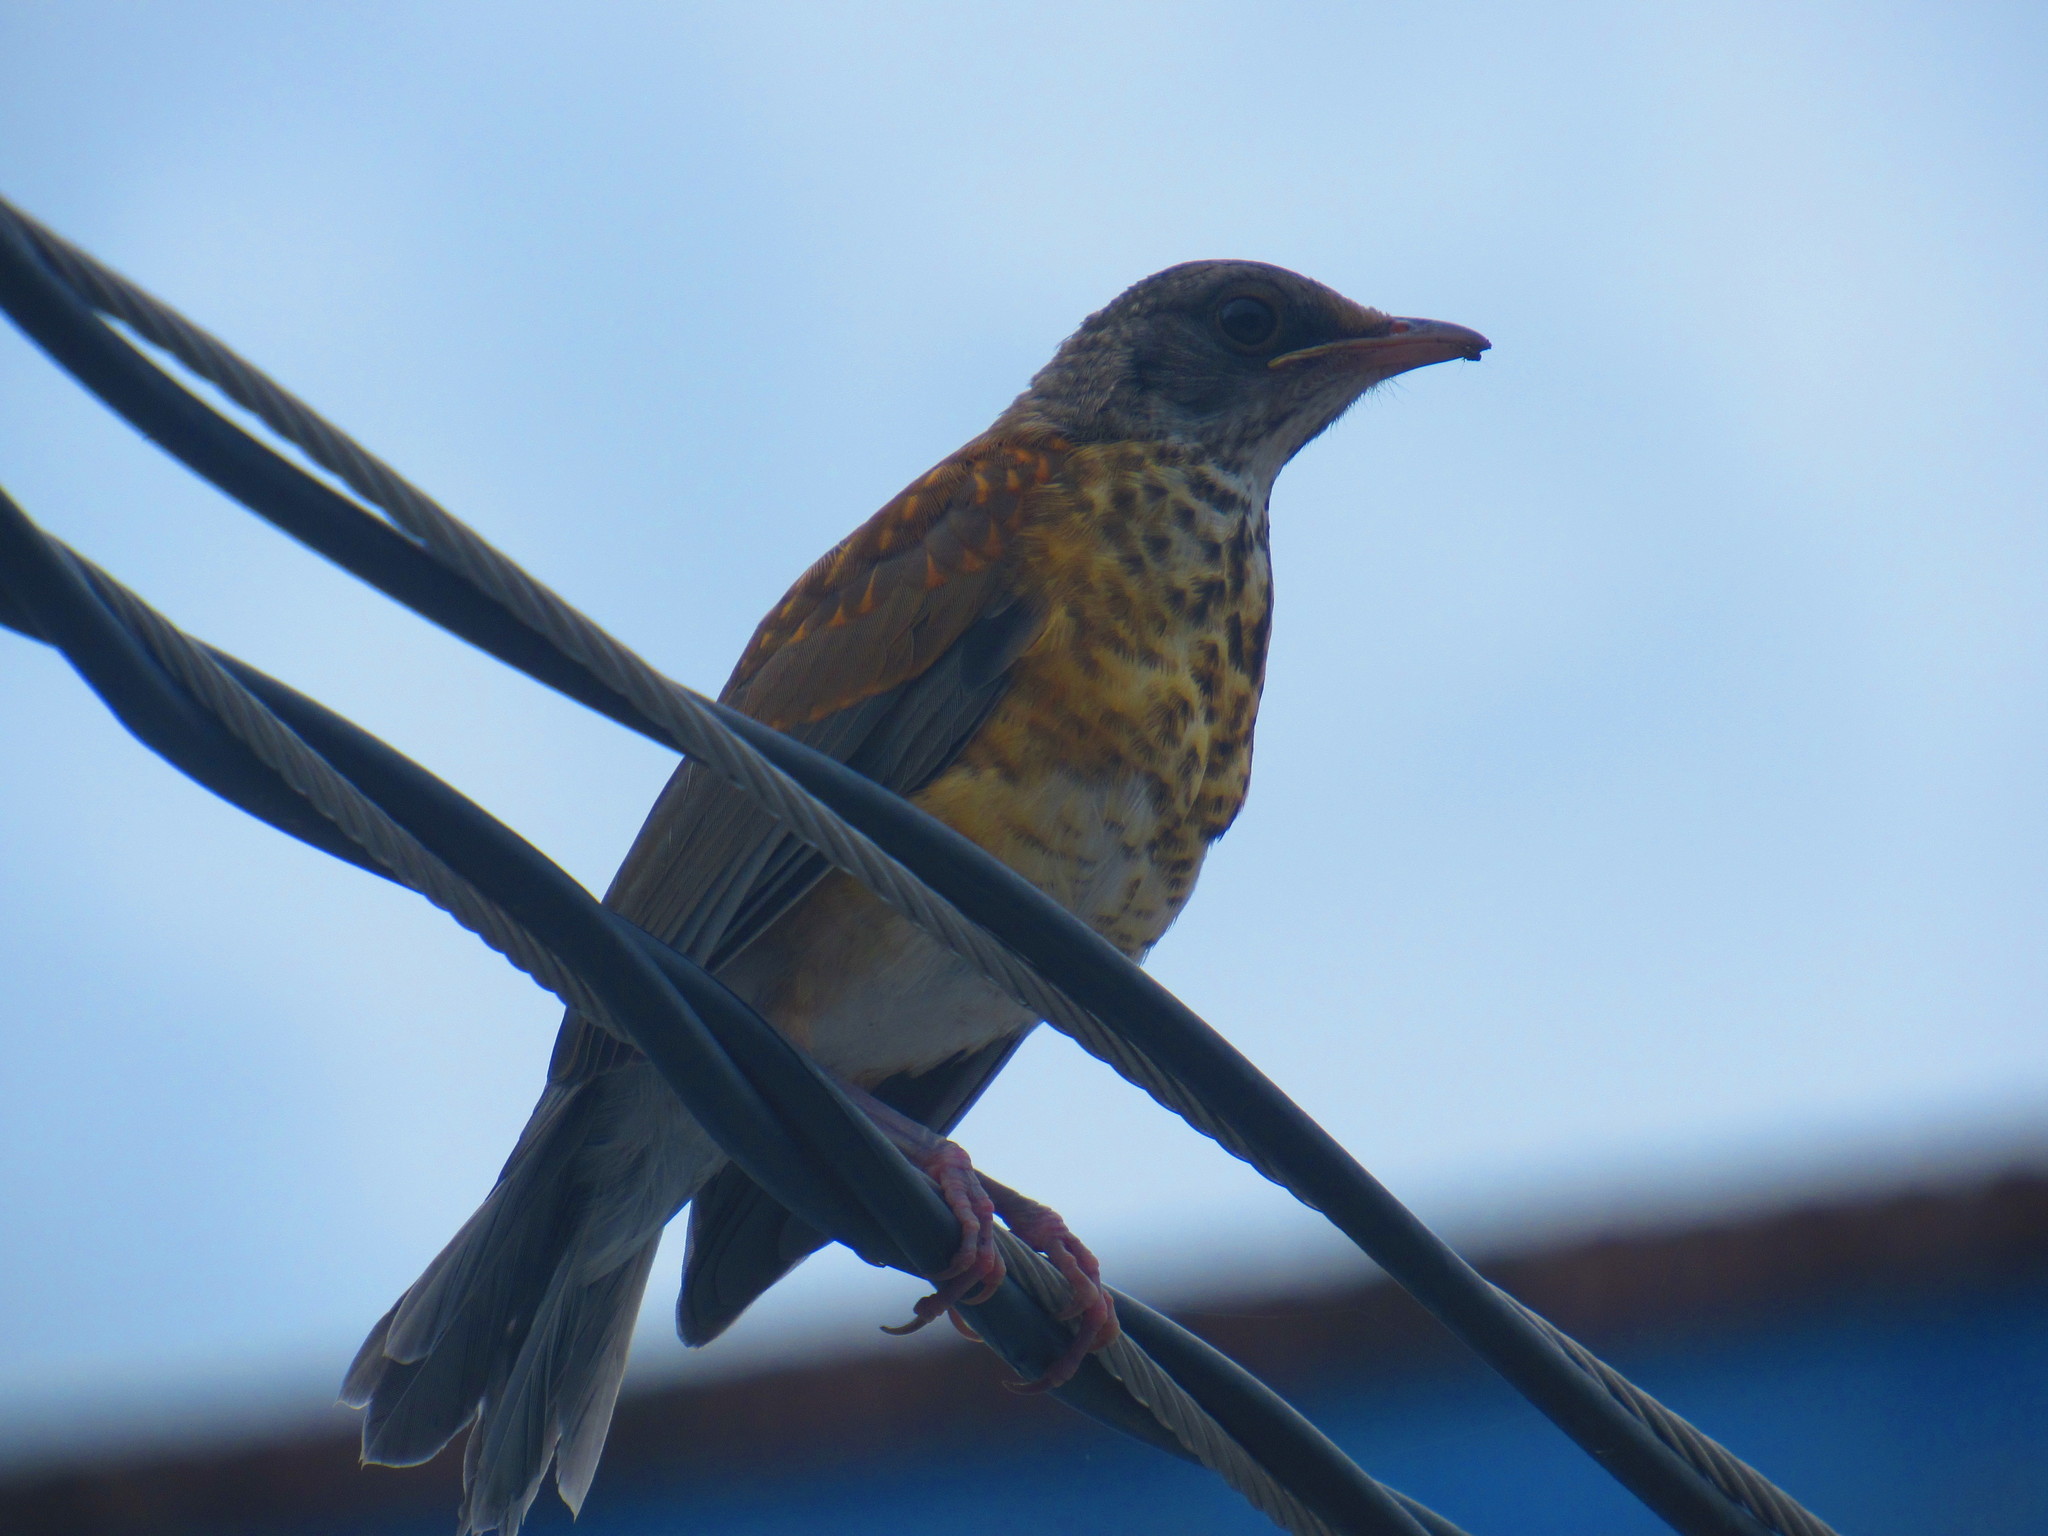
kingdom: Animalia
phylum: Chordata
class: Aves
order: Passeriformes
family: Turdidae
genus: Turdus
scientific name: Turdus rufopalliatus
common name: Rufous-backed robin
